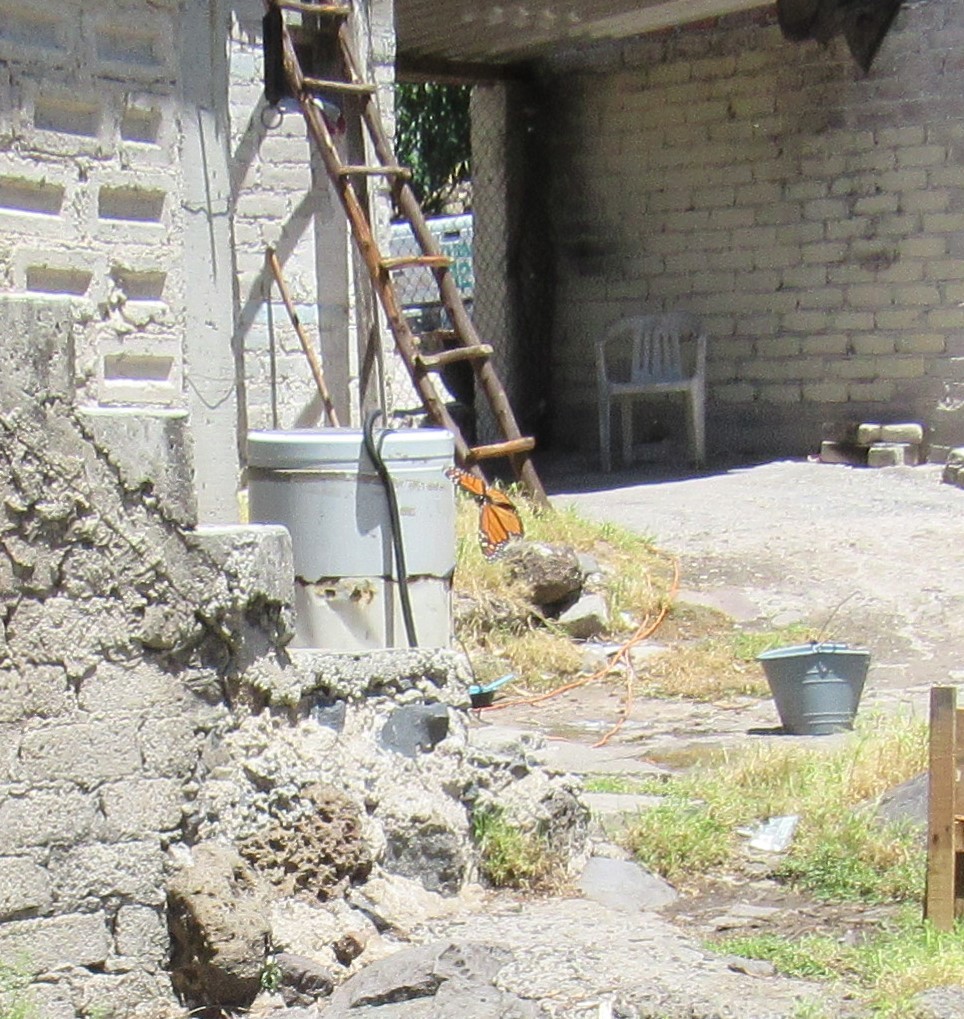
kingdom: Animalia
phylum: Arthropoda
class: Insecta
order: Lepidoptera
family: Nymphalidae
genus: Danaus
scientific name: Danaus plexippus
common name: Monarch
